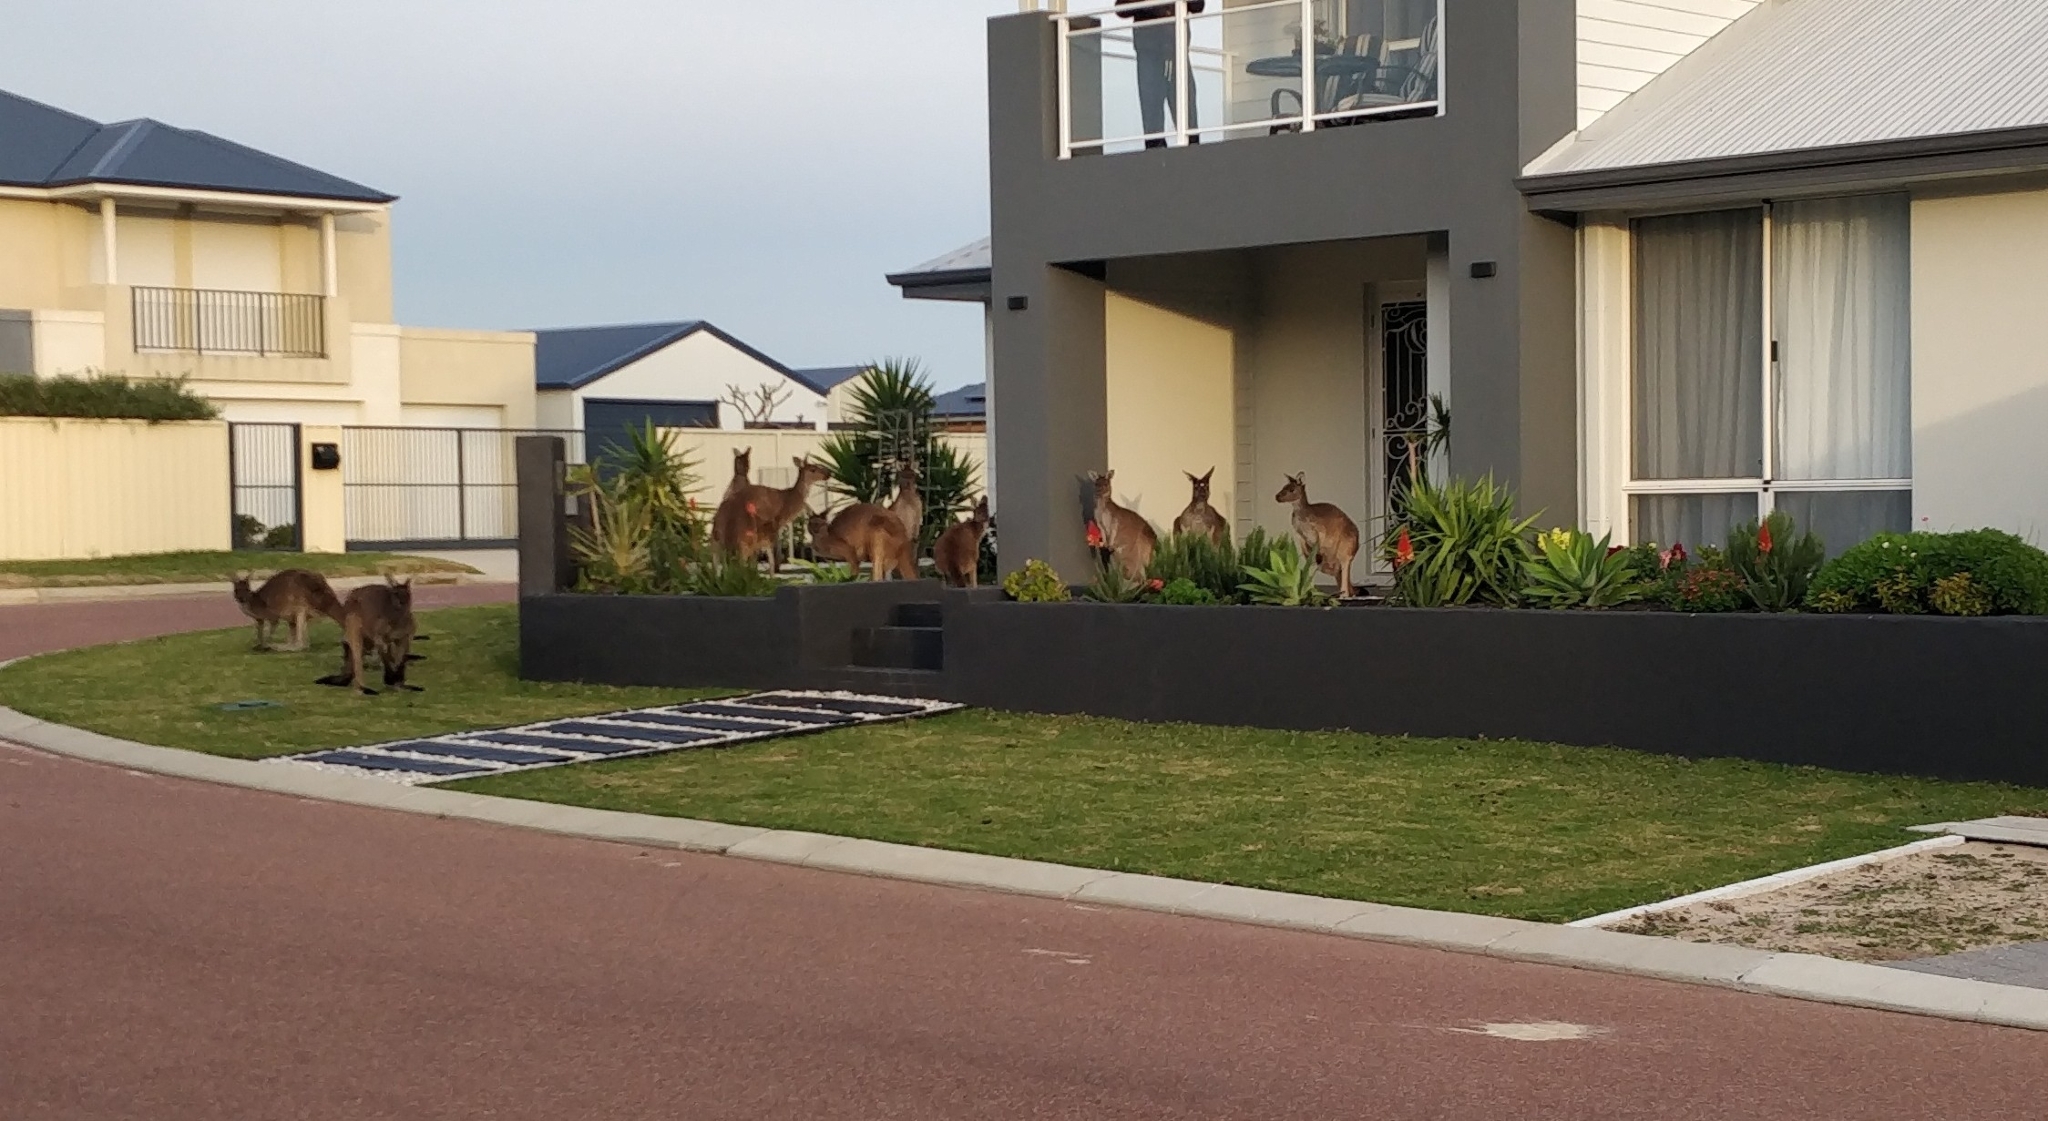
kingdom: Animalia
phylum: Chordata
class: Mammalia
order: Diprotodontia
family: Macropodidae
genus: Macropus
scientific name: Macropus fuliginosus
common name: Western grey kangaroo
